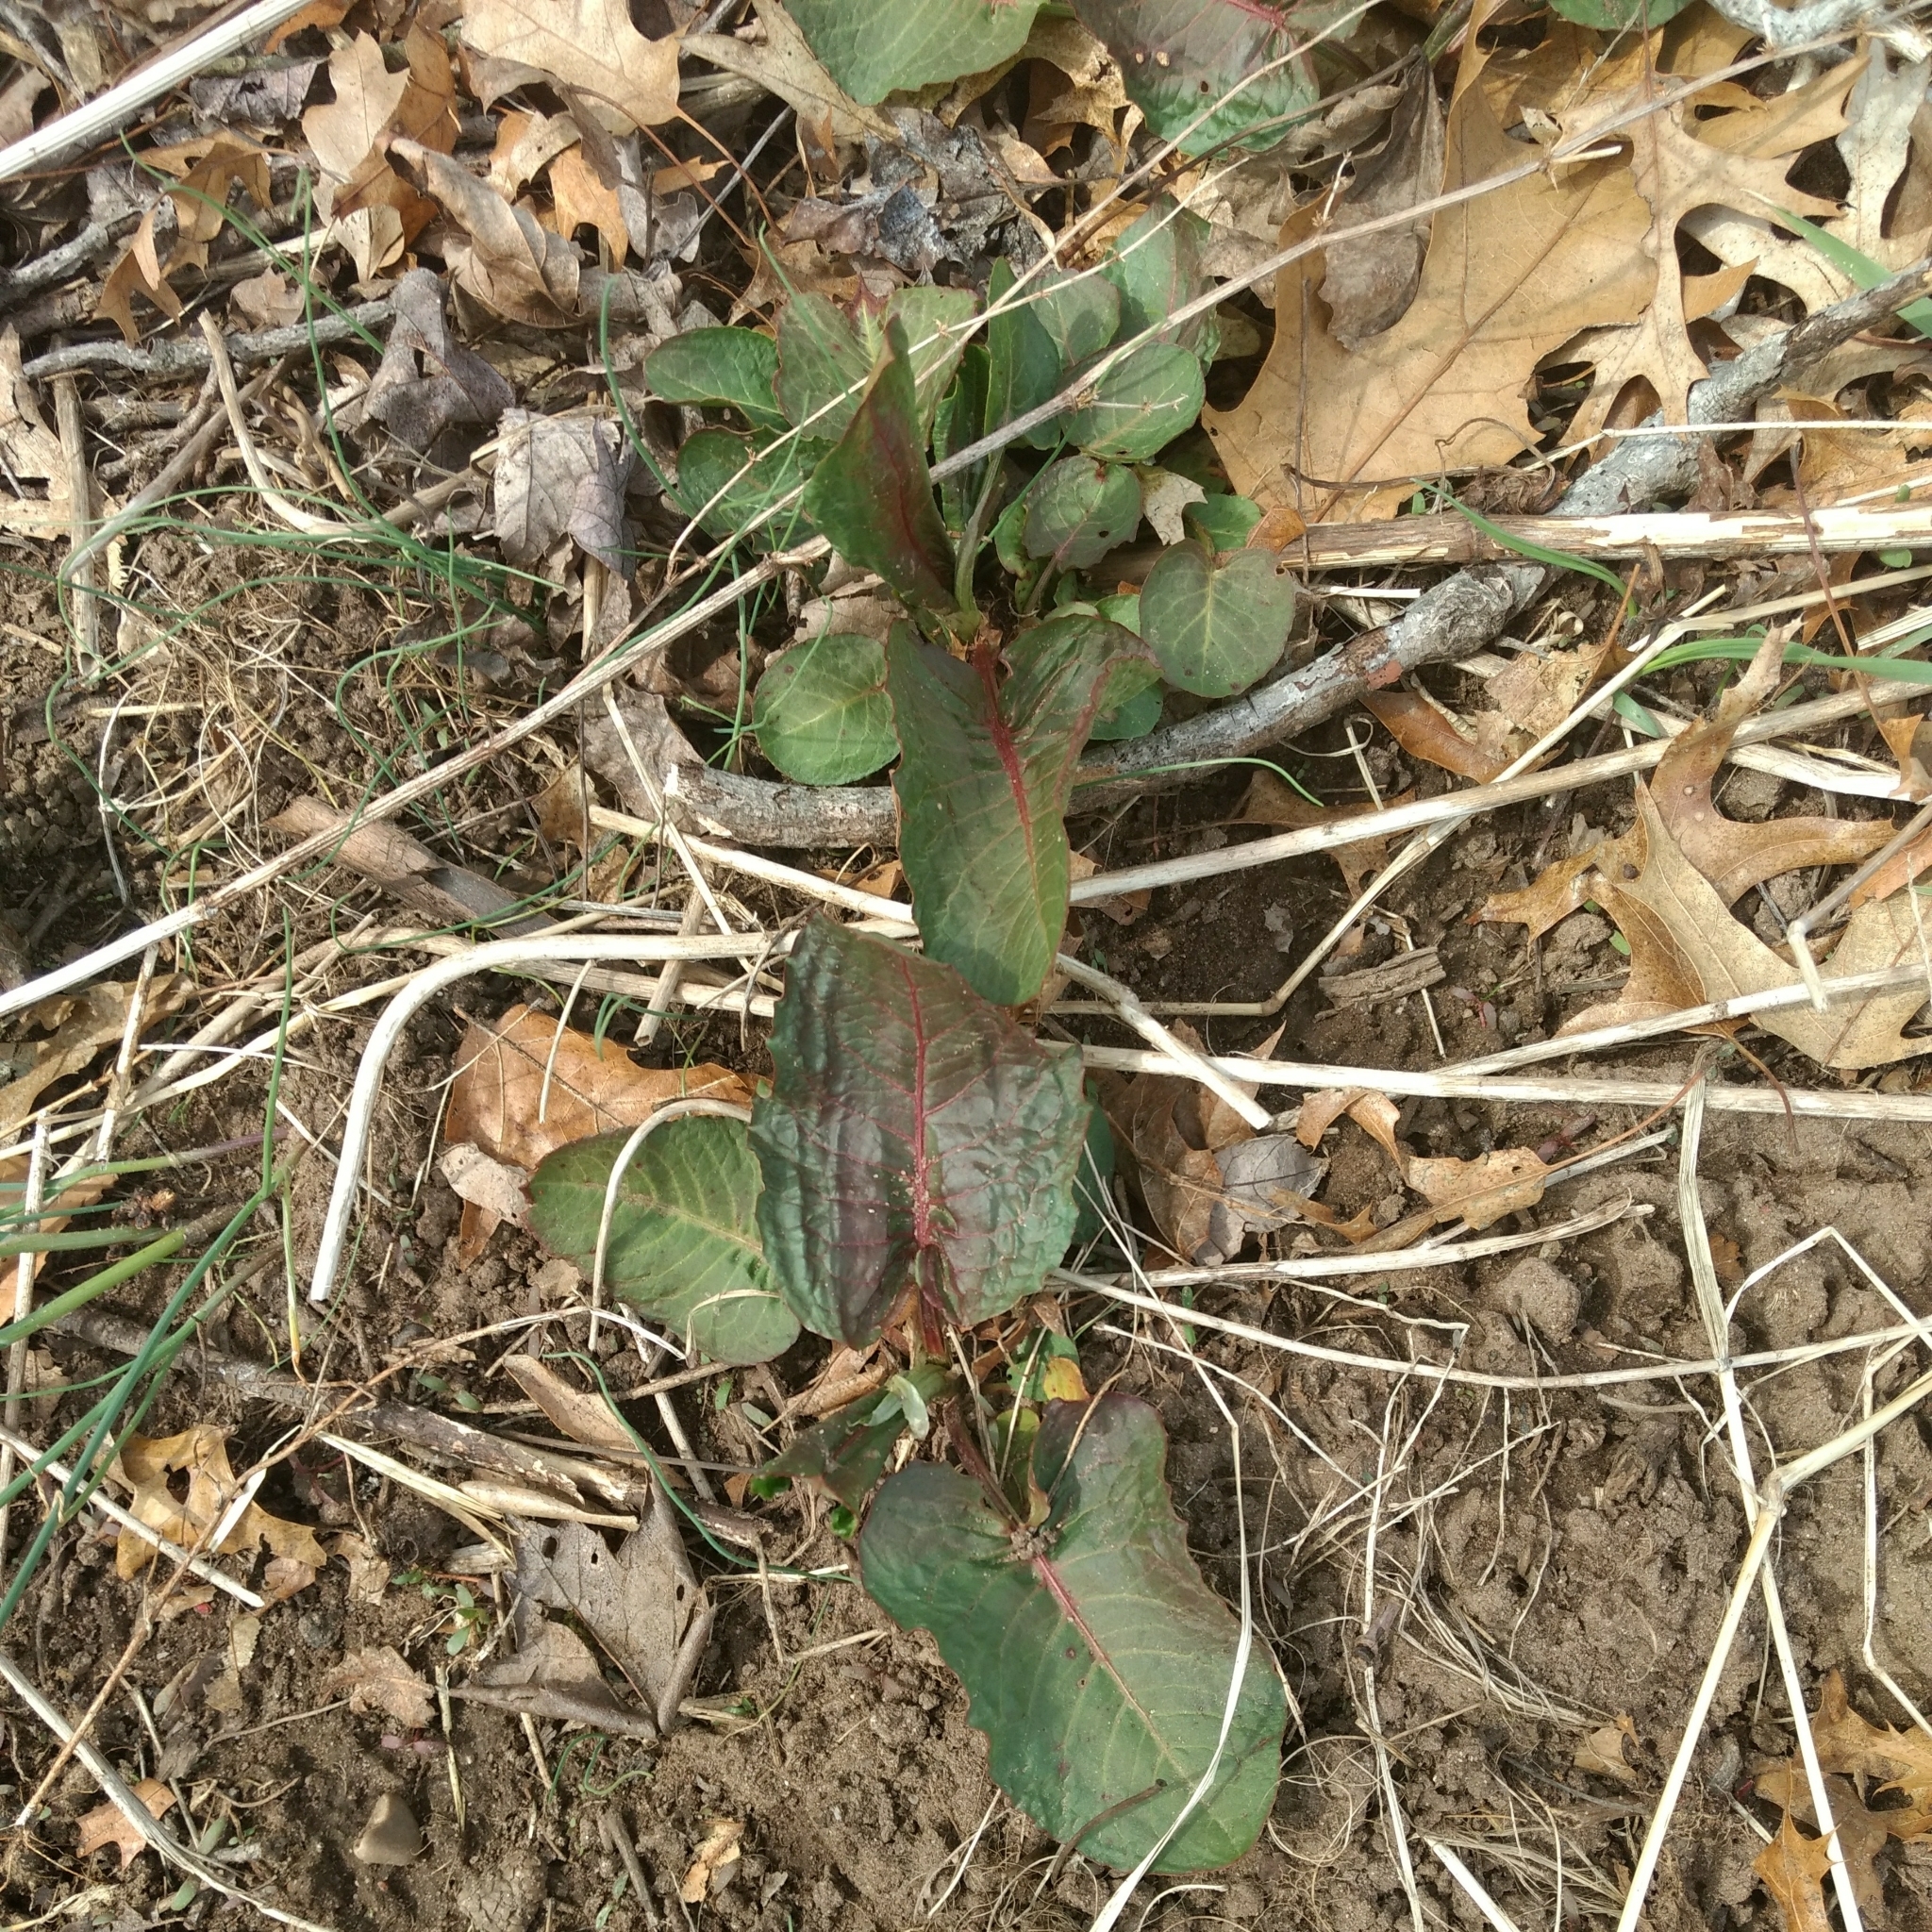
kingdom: Plantae
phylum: Tracheophyta
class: Magnoliopsida
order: Caryophyllales
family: Polygonaceae
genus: Rumex
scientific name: Rumex obtusifolius
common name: Bitter dock
